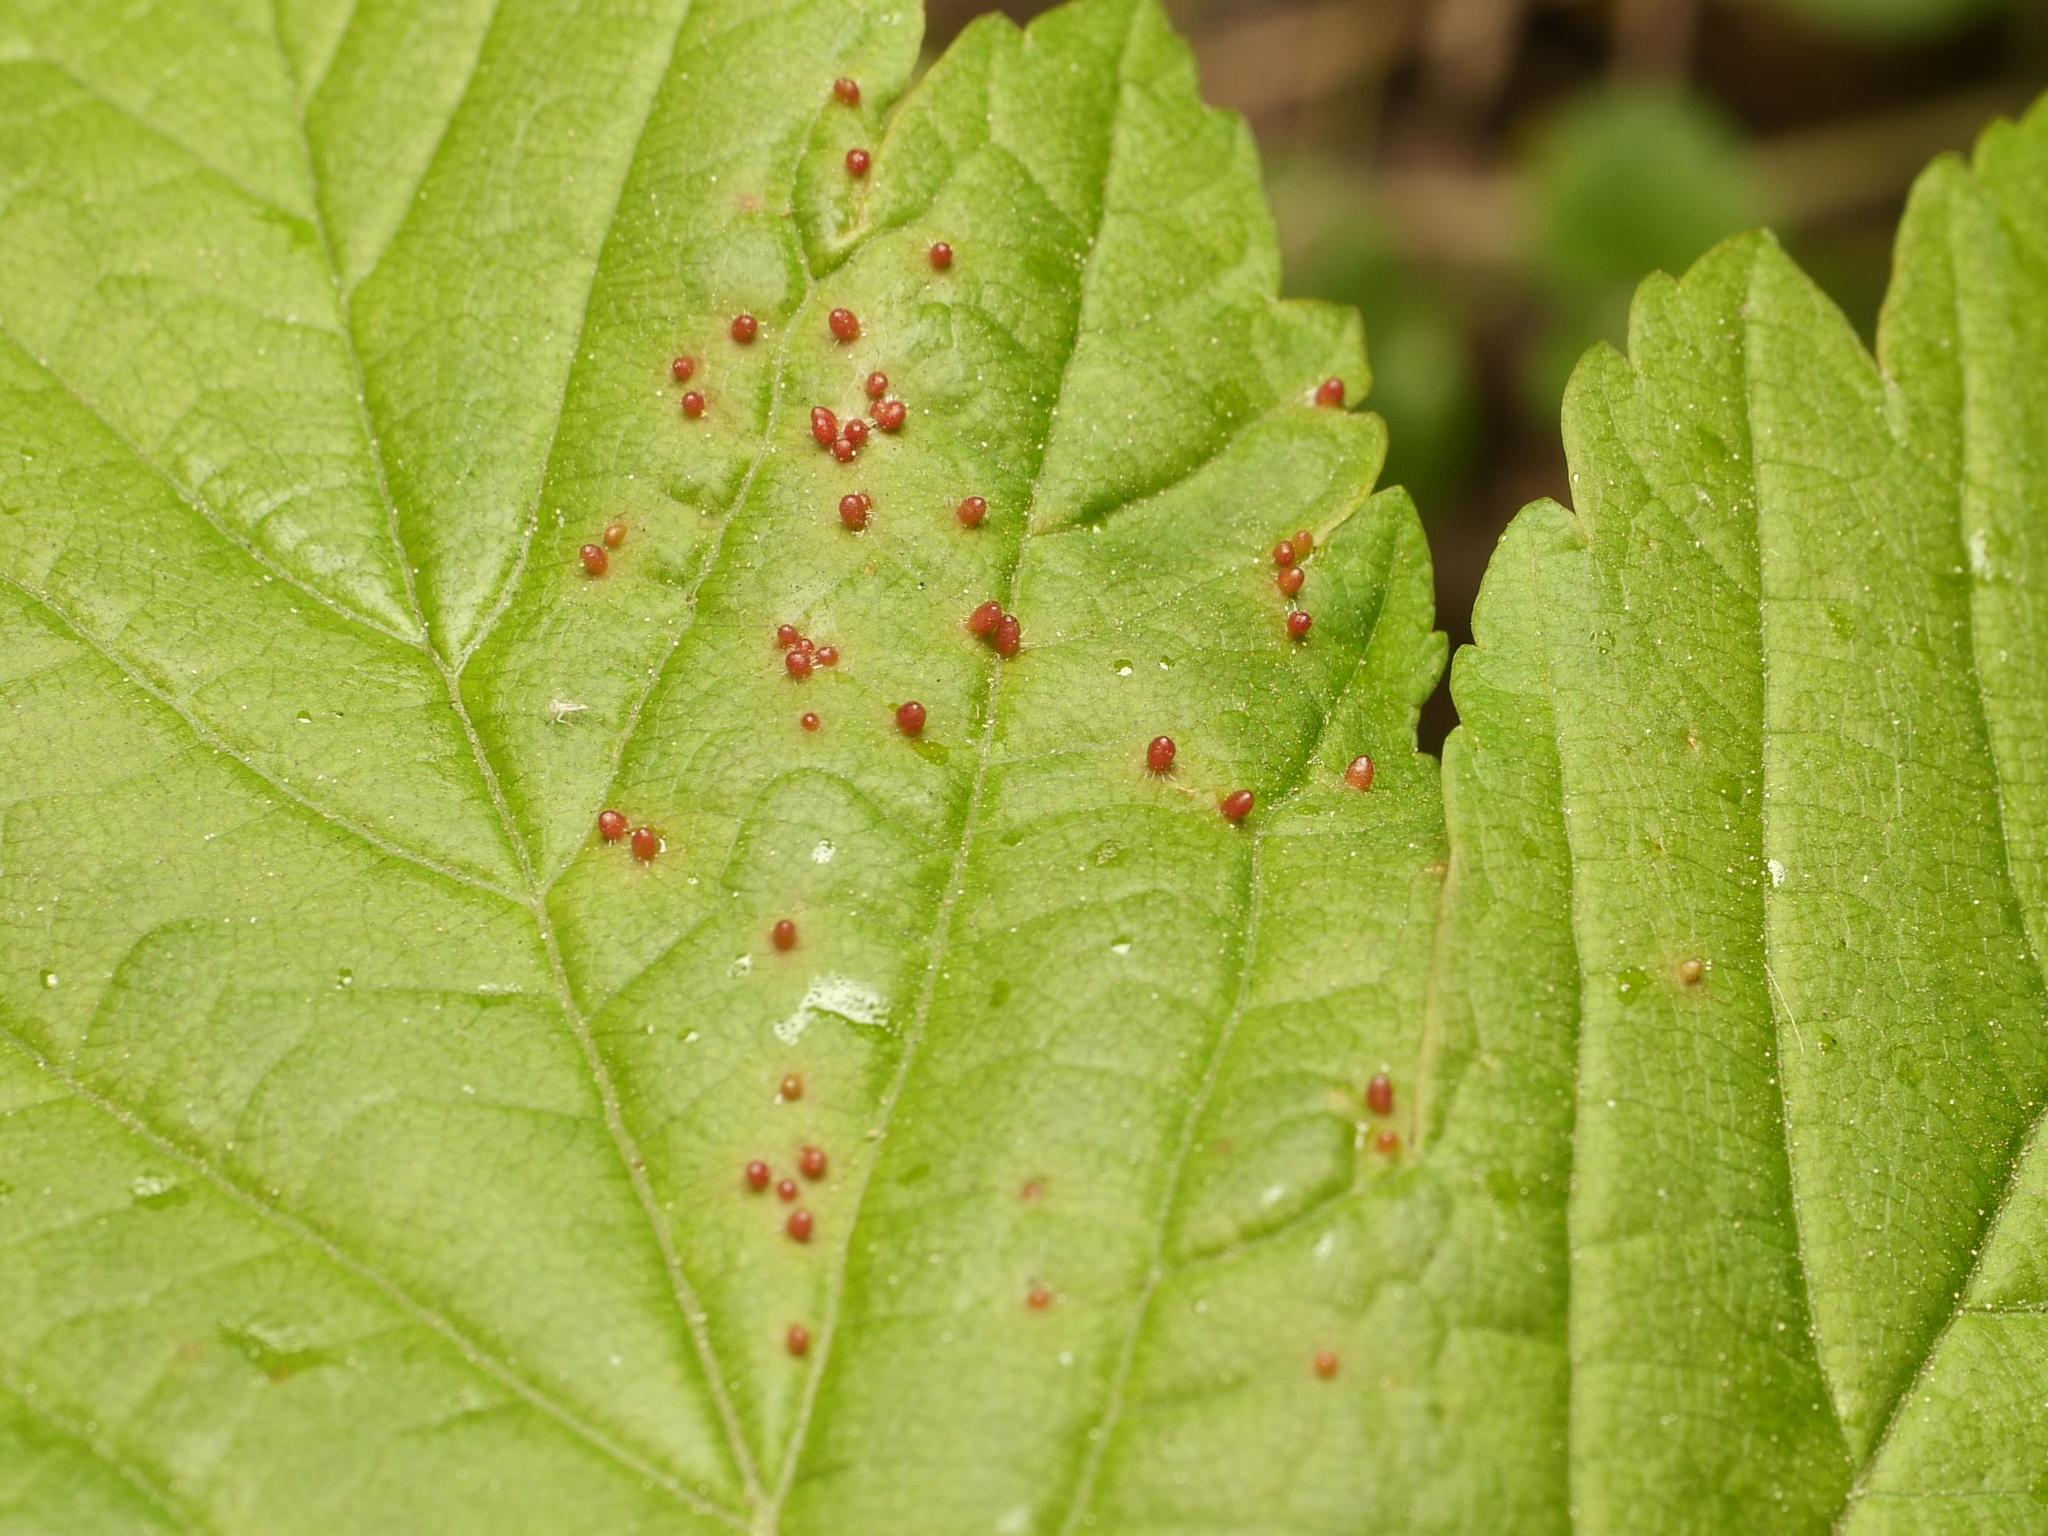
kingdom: Animalia
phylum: Arthropoda
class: Arachnida
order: Trombidiformes
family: Eriophyidae
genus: Aceria
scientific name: Aceria cephaloneus
